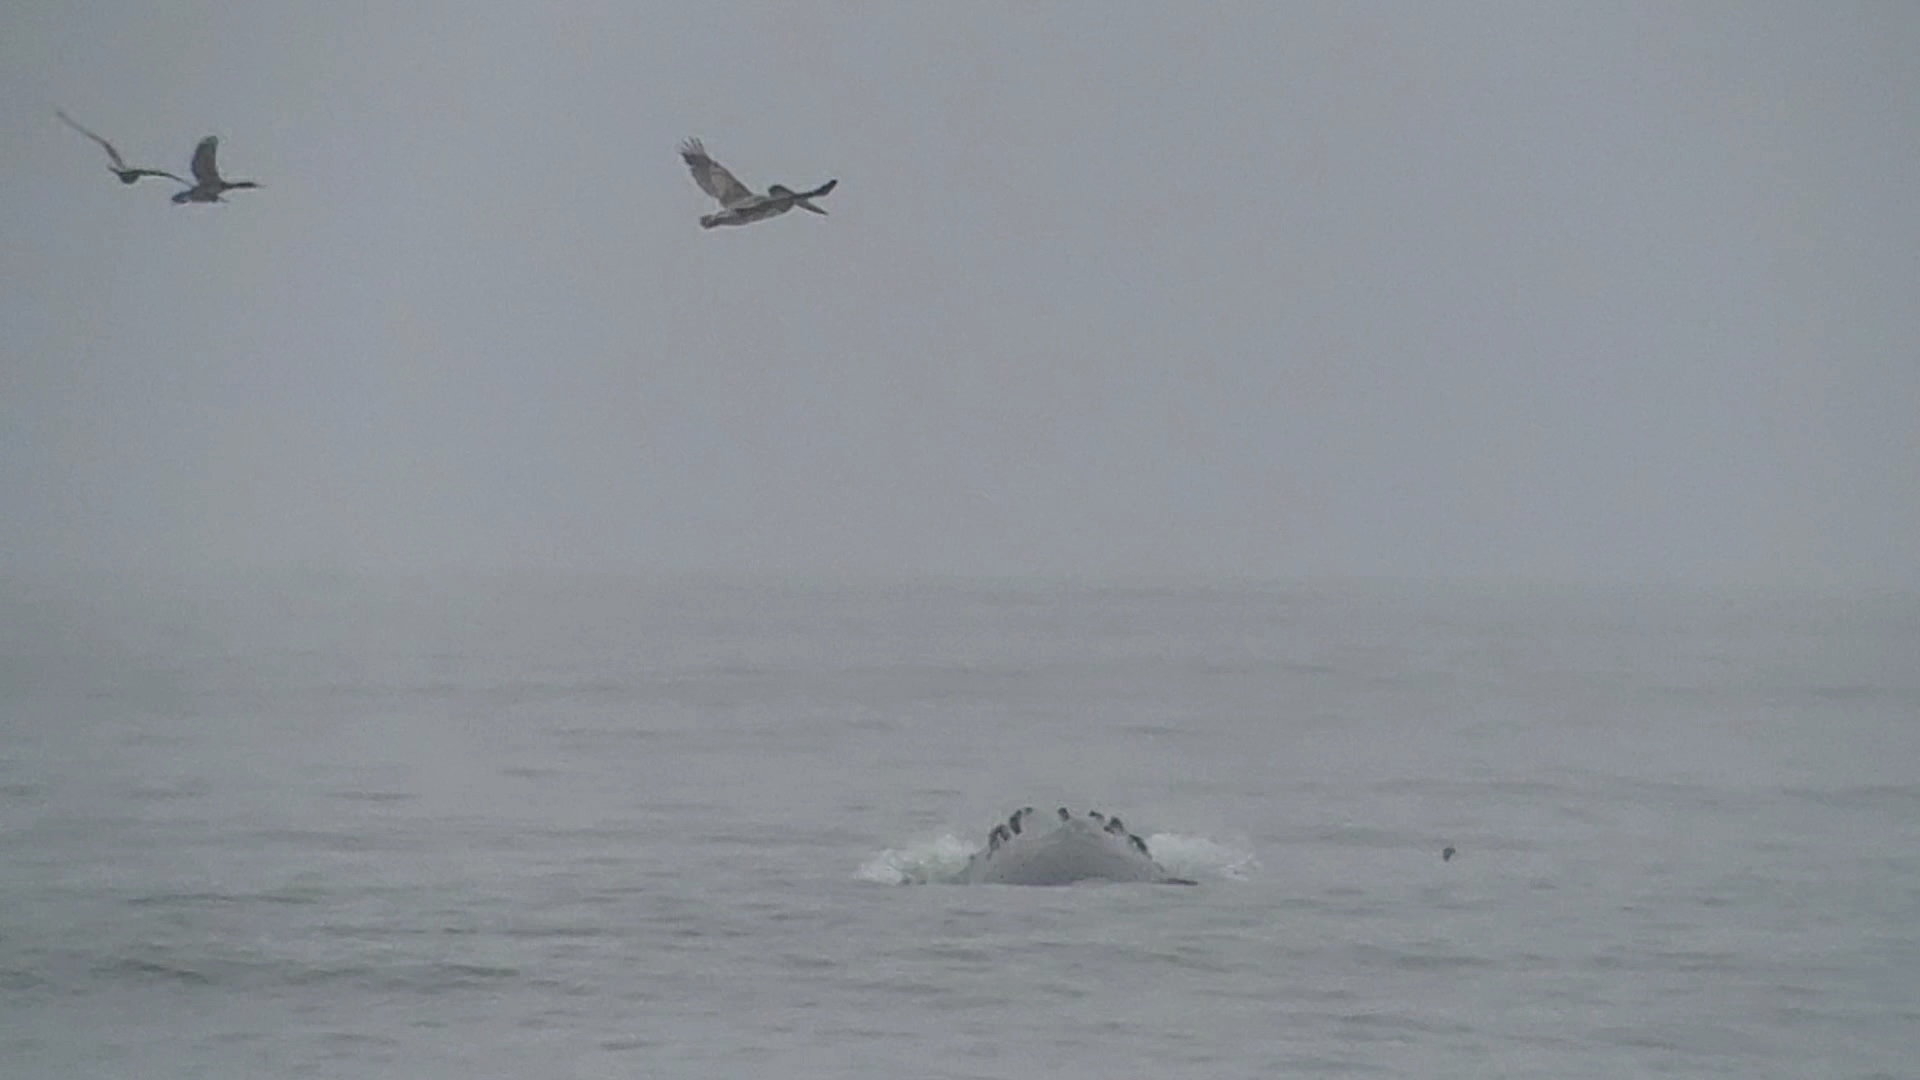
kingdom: Animalia
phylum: Chordata
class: Mammalia
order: Cetacea
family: Balaenopteridae
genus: Megaptera
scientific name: Megaptera novaeangliae
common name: Humpback whale
